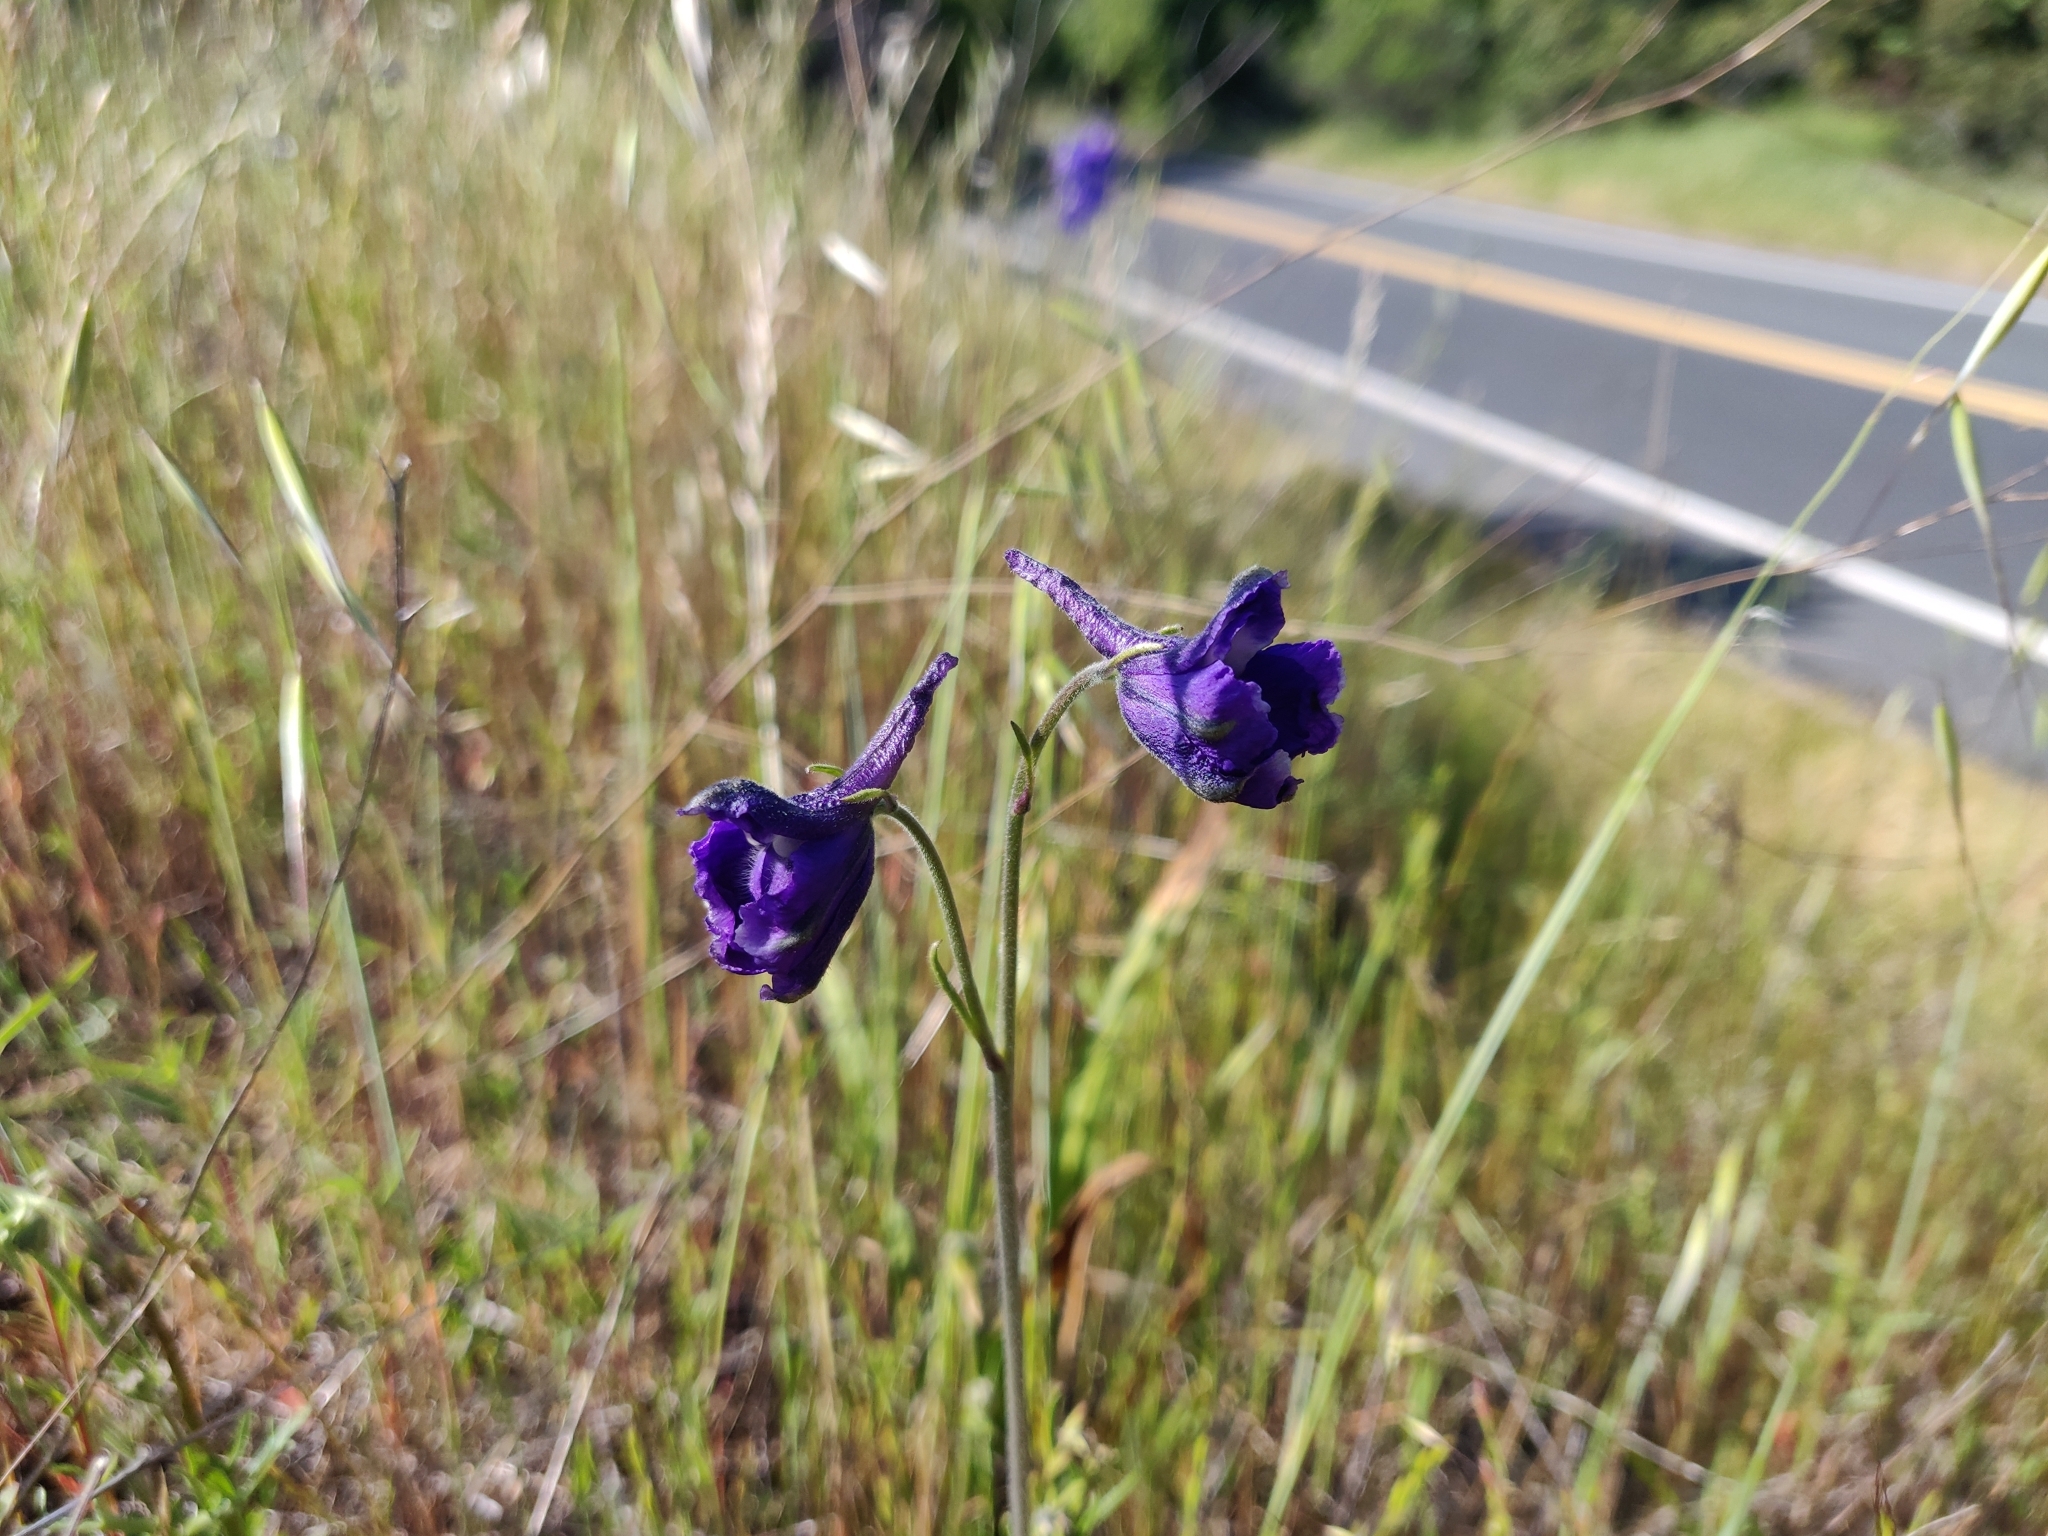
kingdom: Plantae
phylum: Tracheophyta
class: Magnoliopsida
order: Ranunculales
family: Ranunculaceae
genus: Delphinium
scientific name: Delphinium variegatum
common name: Royal larkspur
